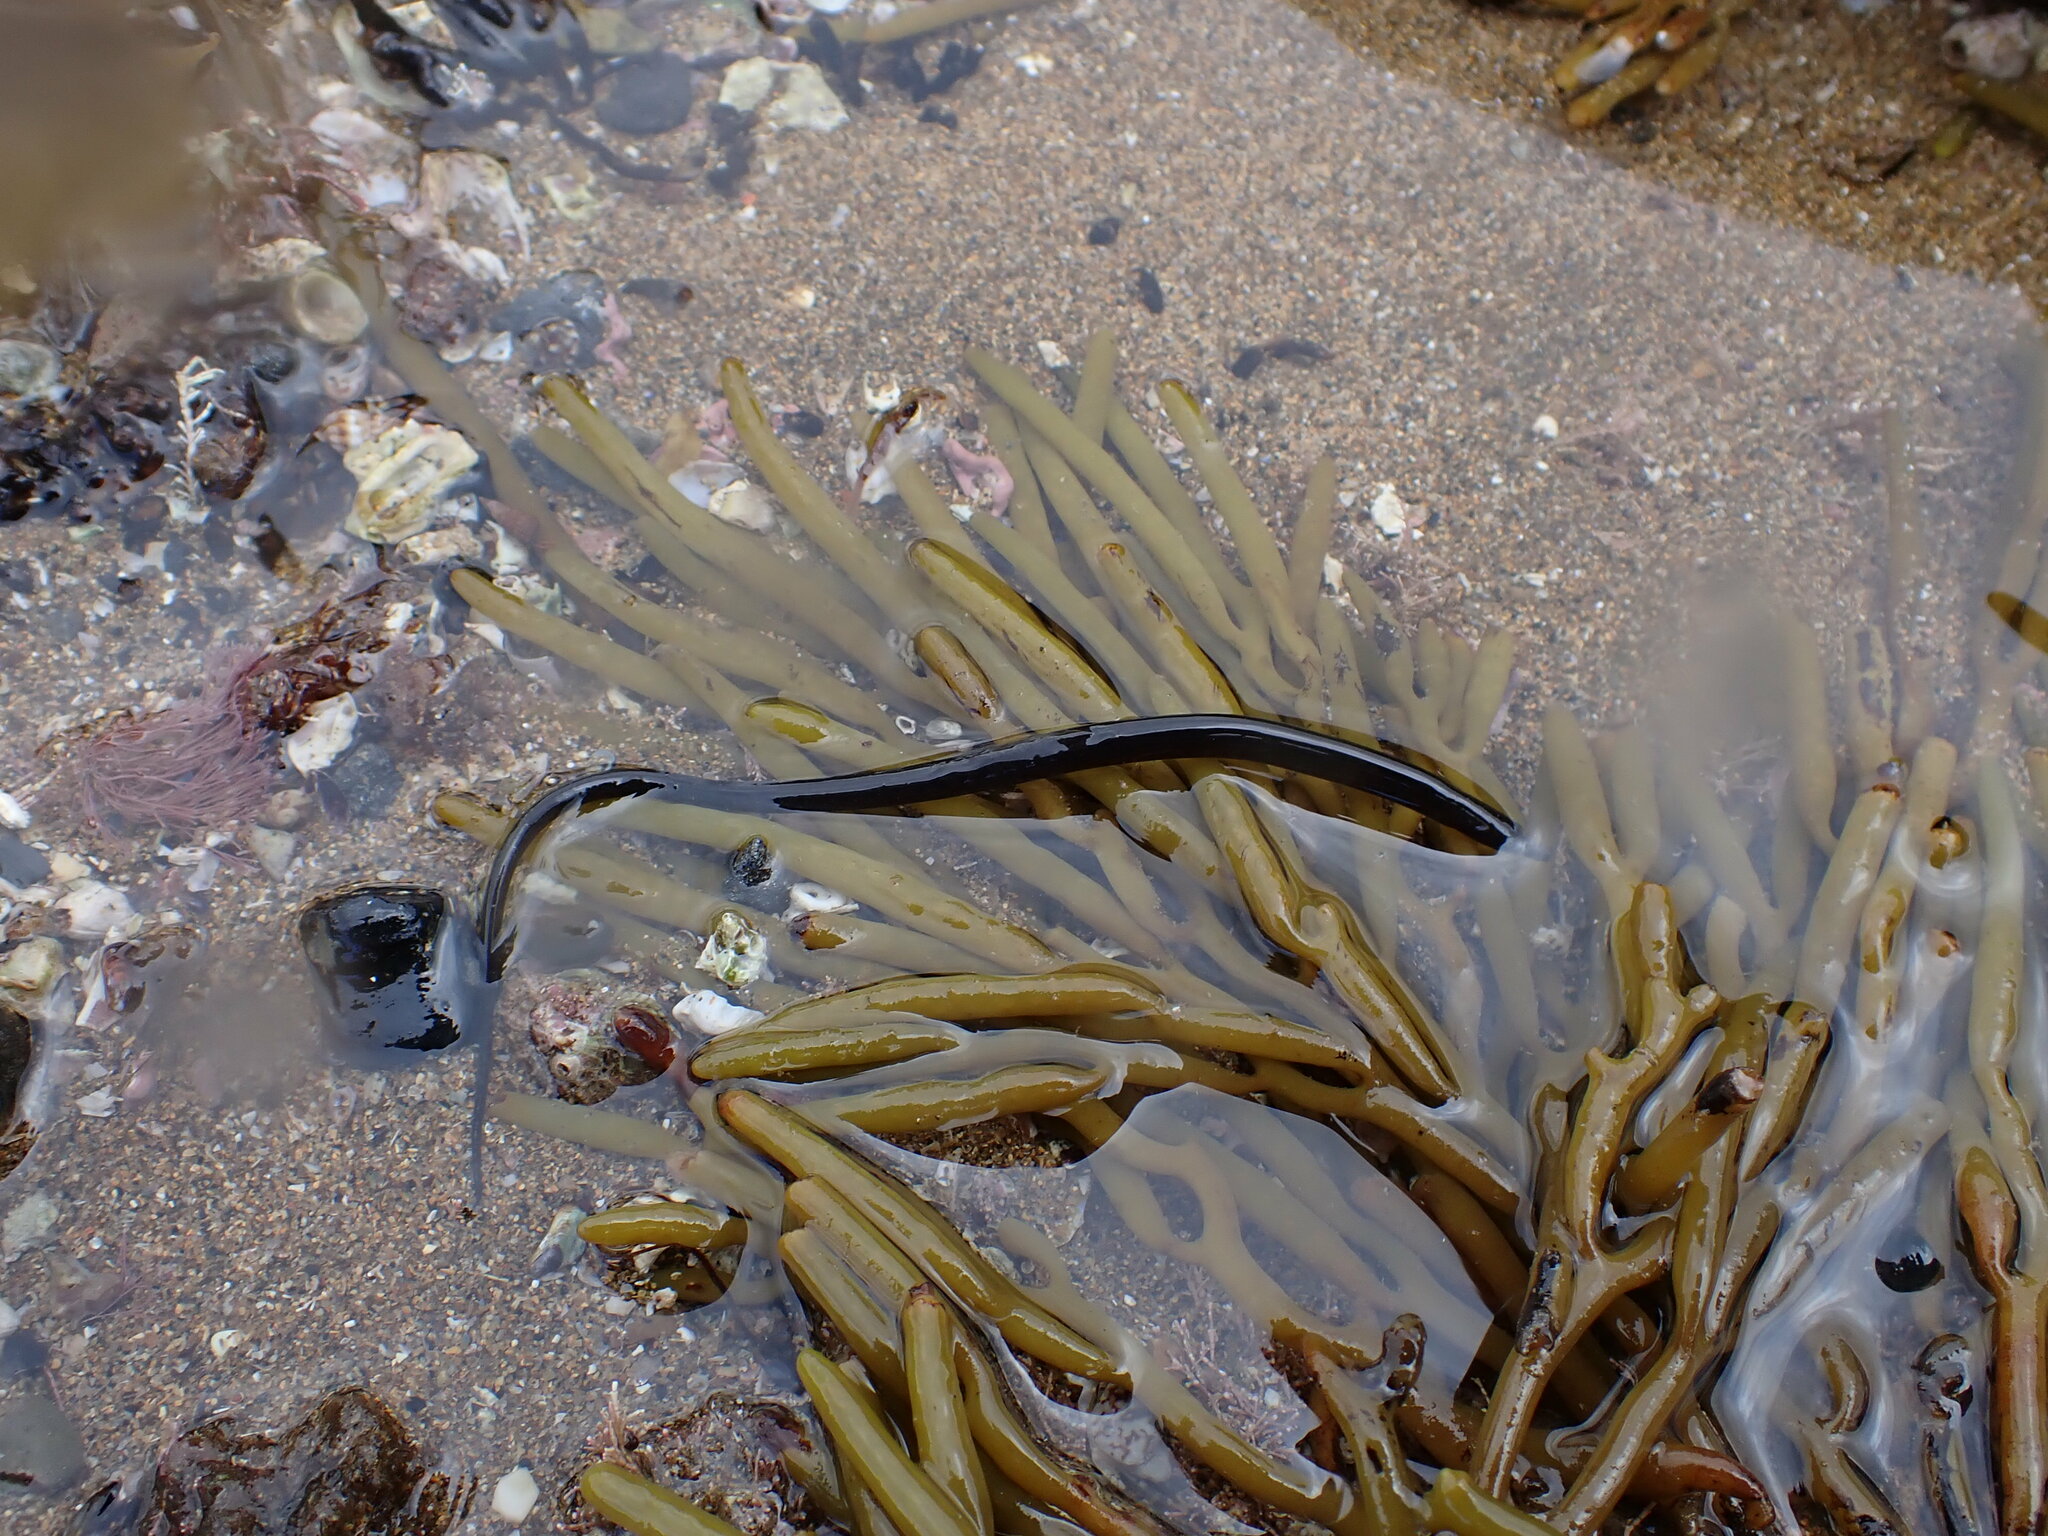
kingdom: Animalia
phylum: Chordata
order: Syngnathiformes
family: Syngnathidae
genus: Nerophis
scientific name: Nerophis lumbriciformis
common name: Worm pipefish
